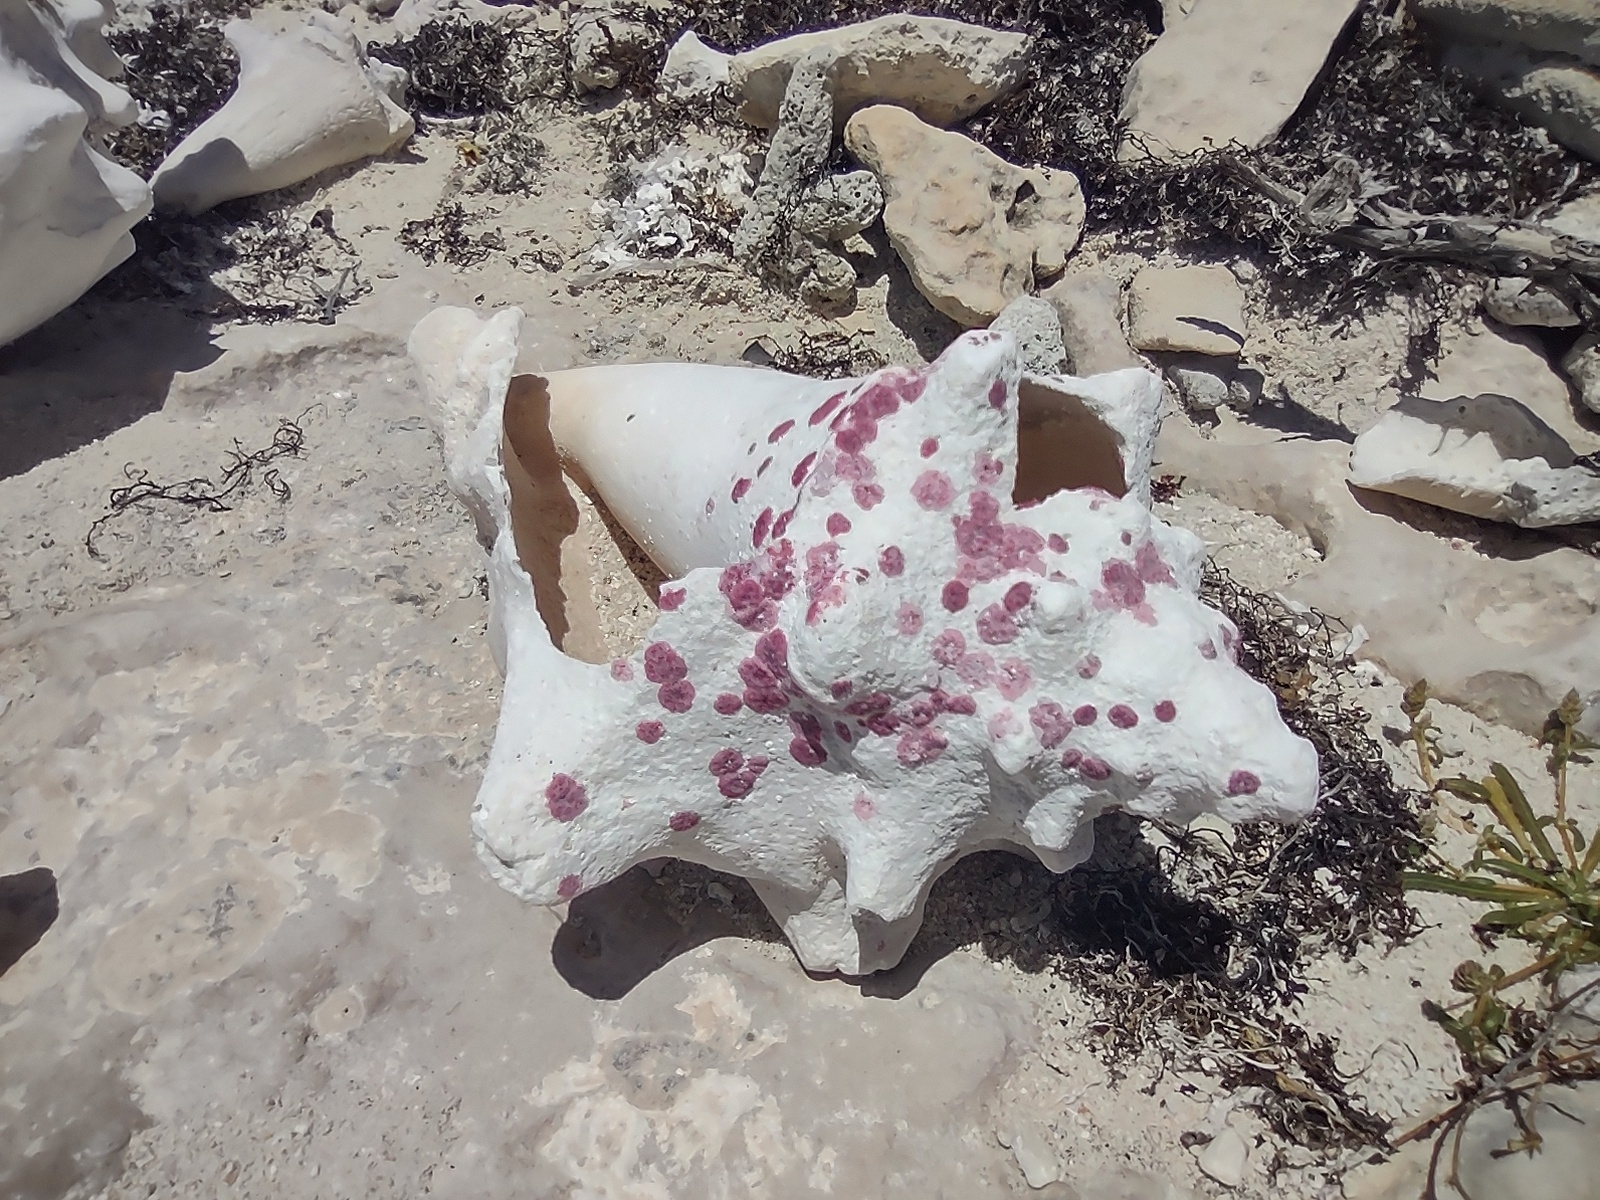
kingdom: Chromista
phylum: Foraminifera
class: Globothalamea
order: Rotaliida
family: Homotrematidae
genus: Homotrema
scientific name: Homotrema rubrum
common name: Red foram
